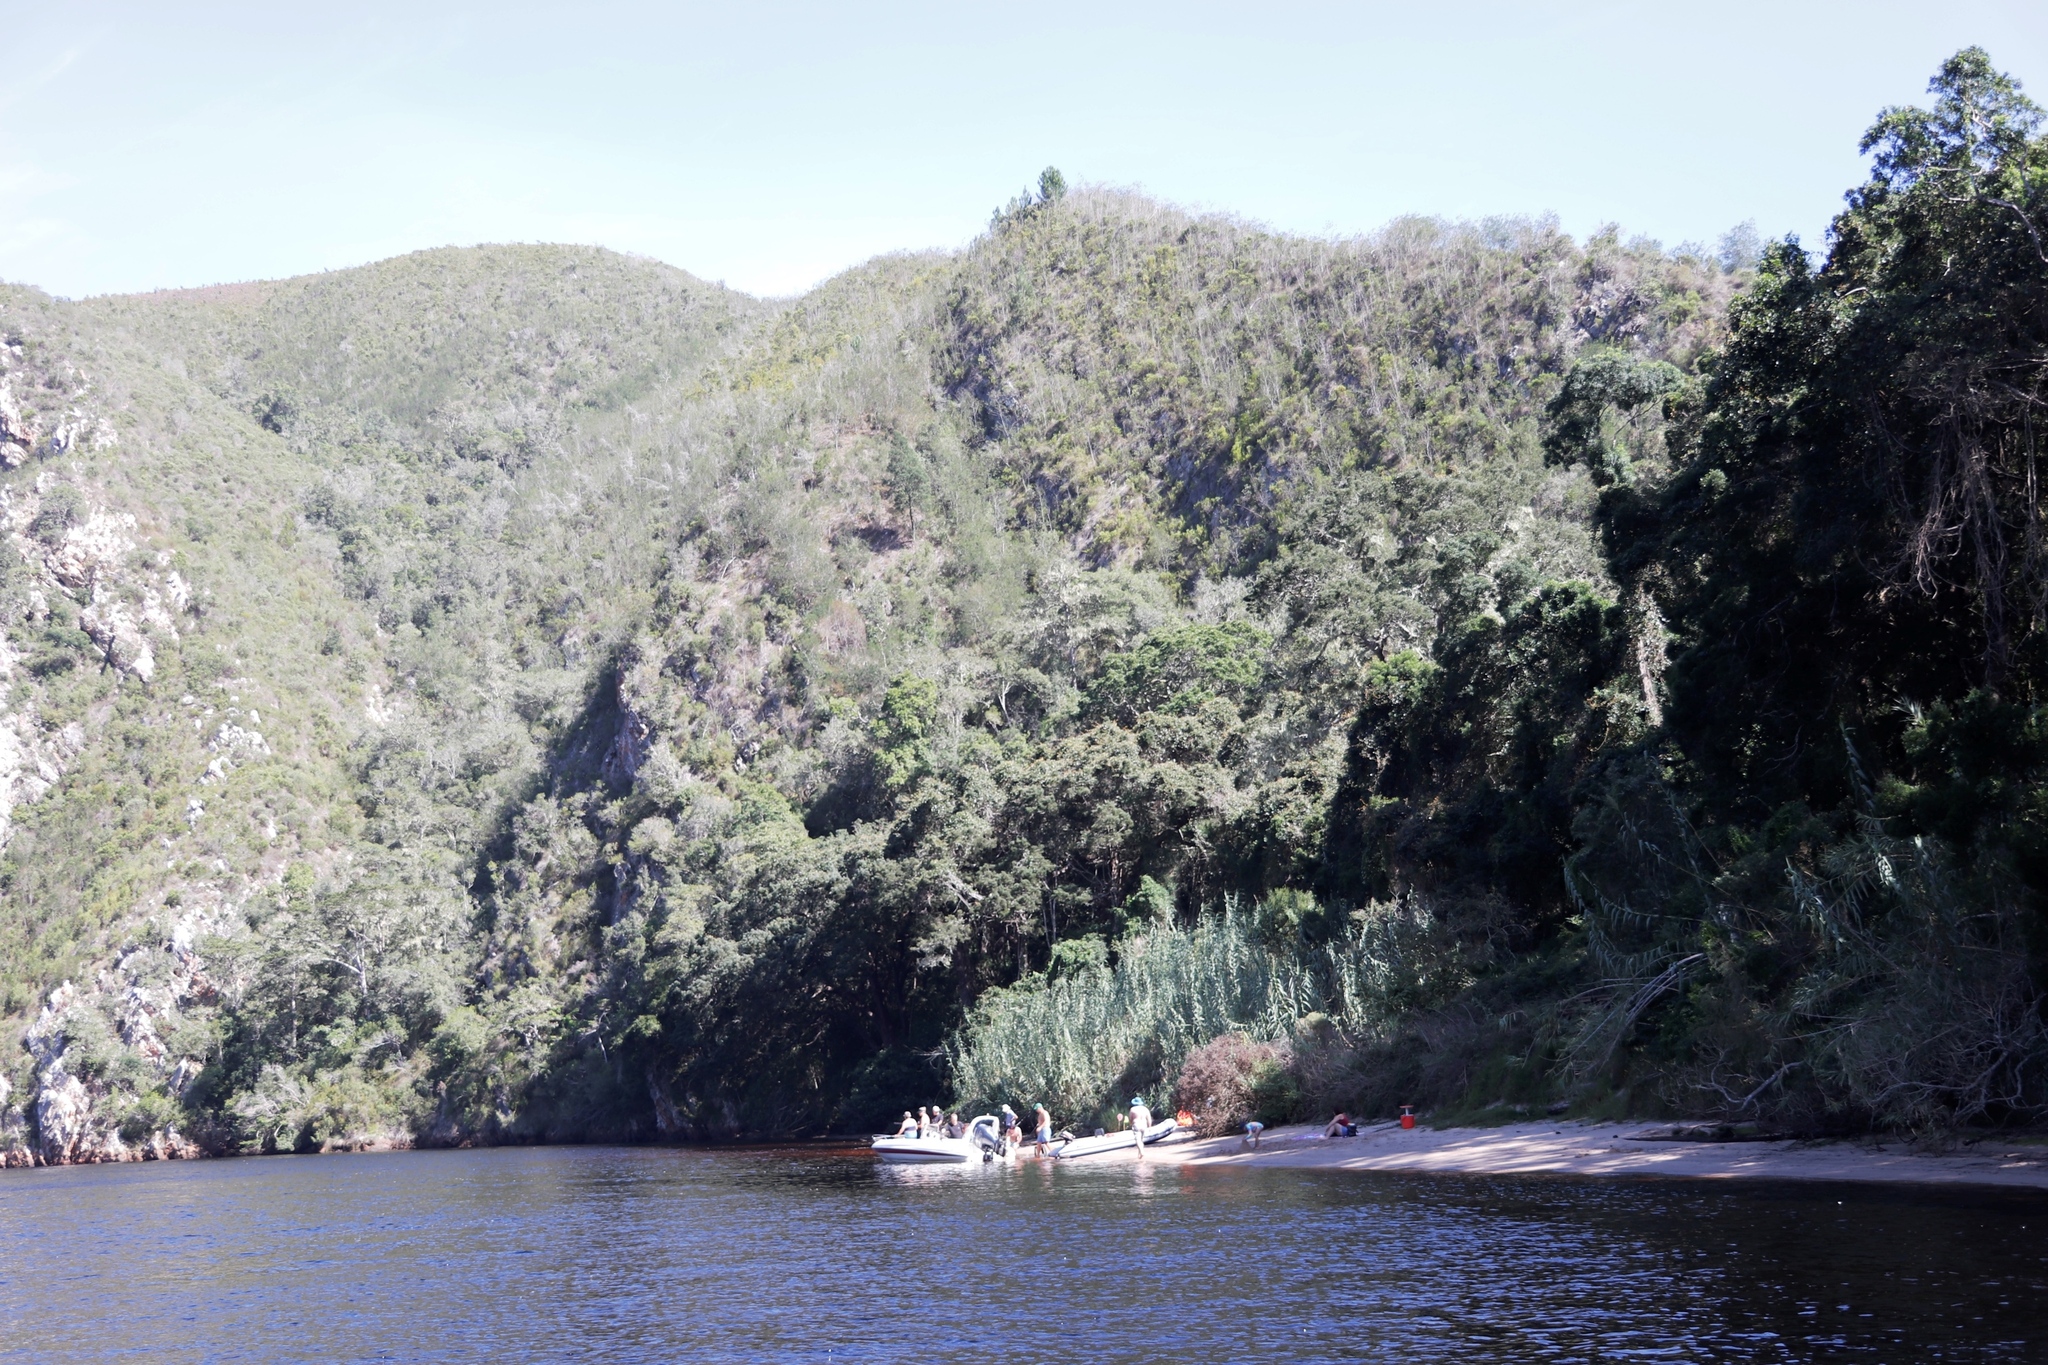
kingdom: Plantae
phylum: Tracheophyta
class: Liliopsida
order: Poales
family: Poaceae
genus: Phragmites
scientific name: Phragmites australis
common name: Common reed
